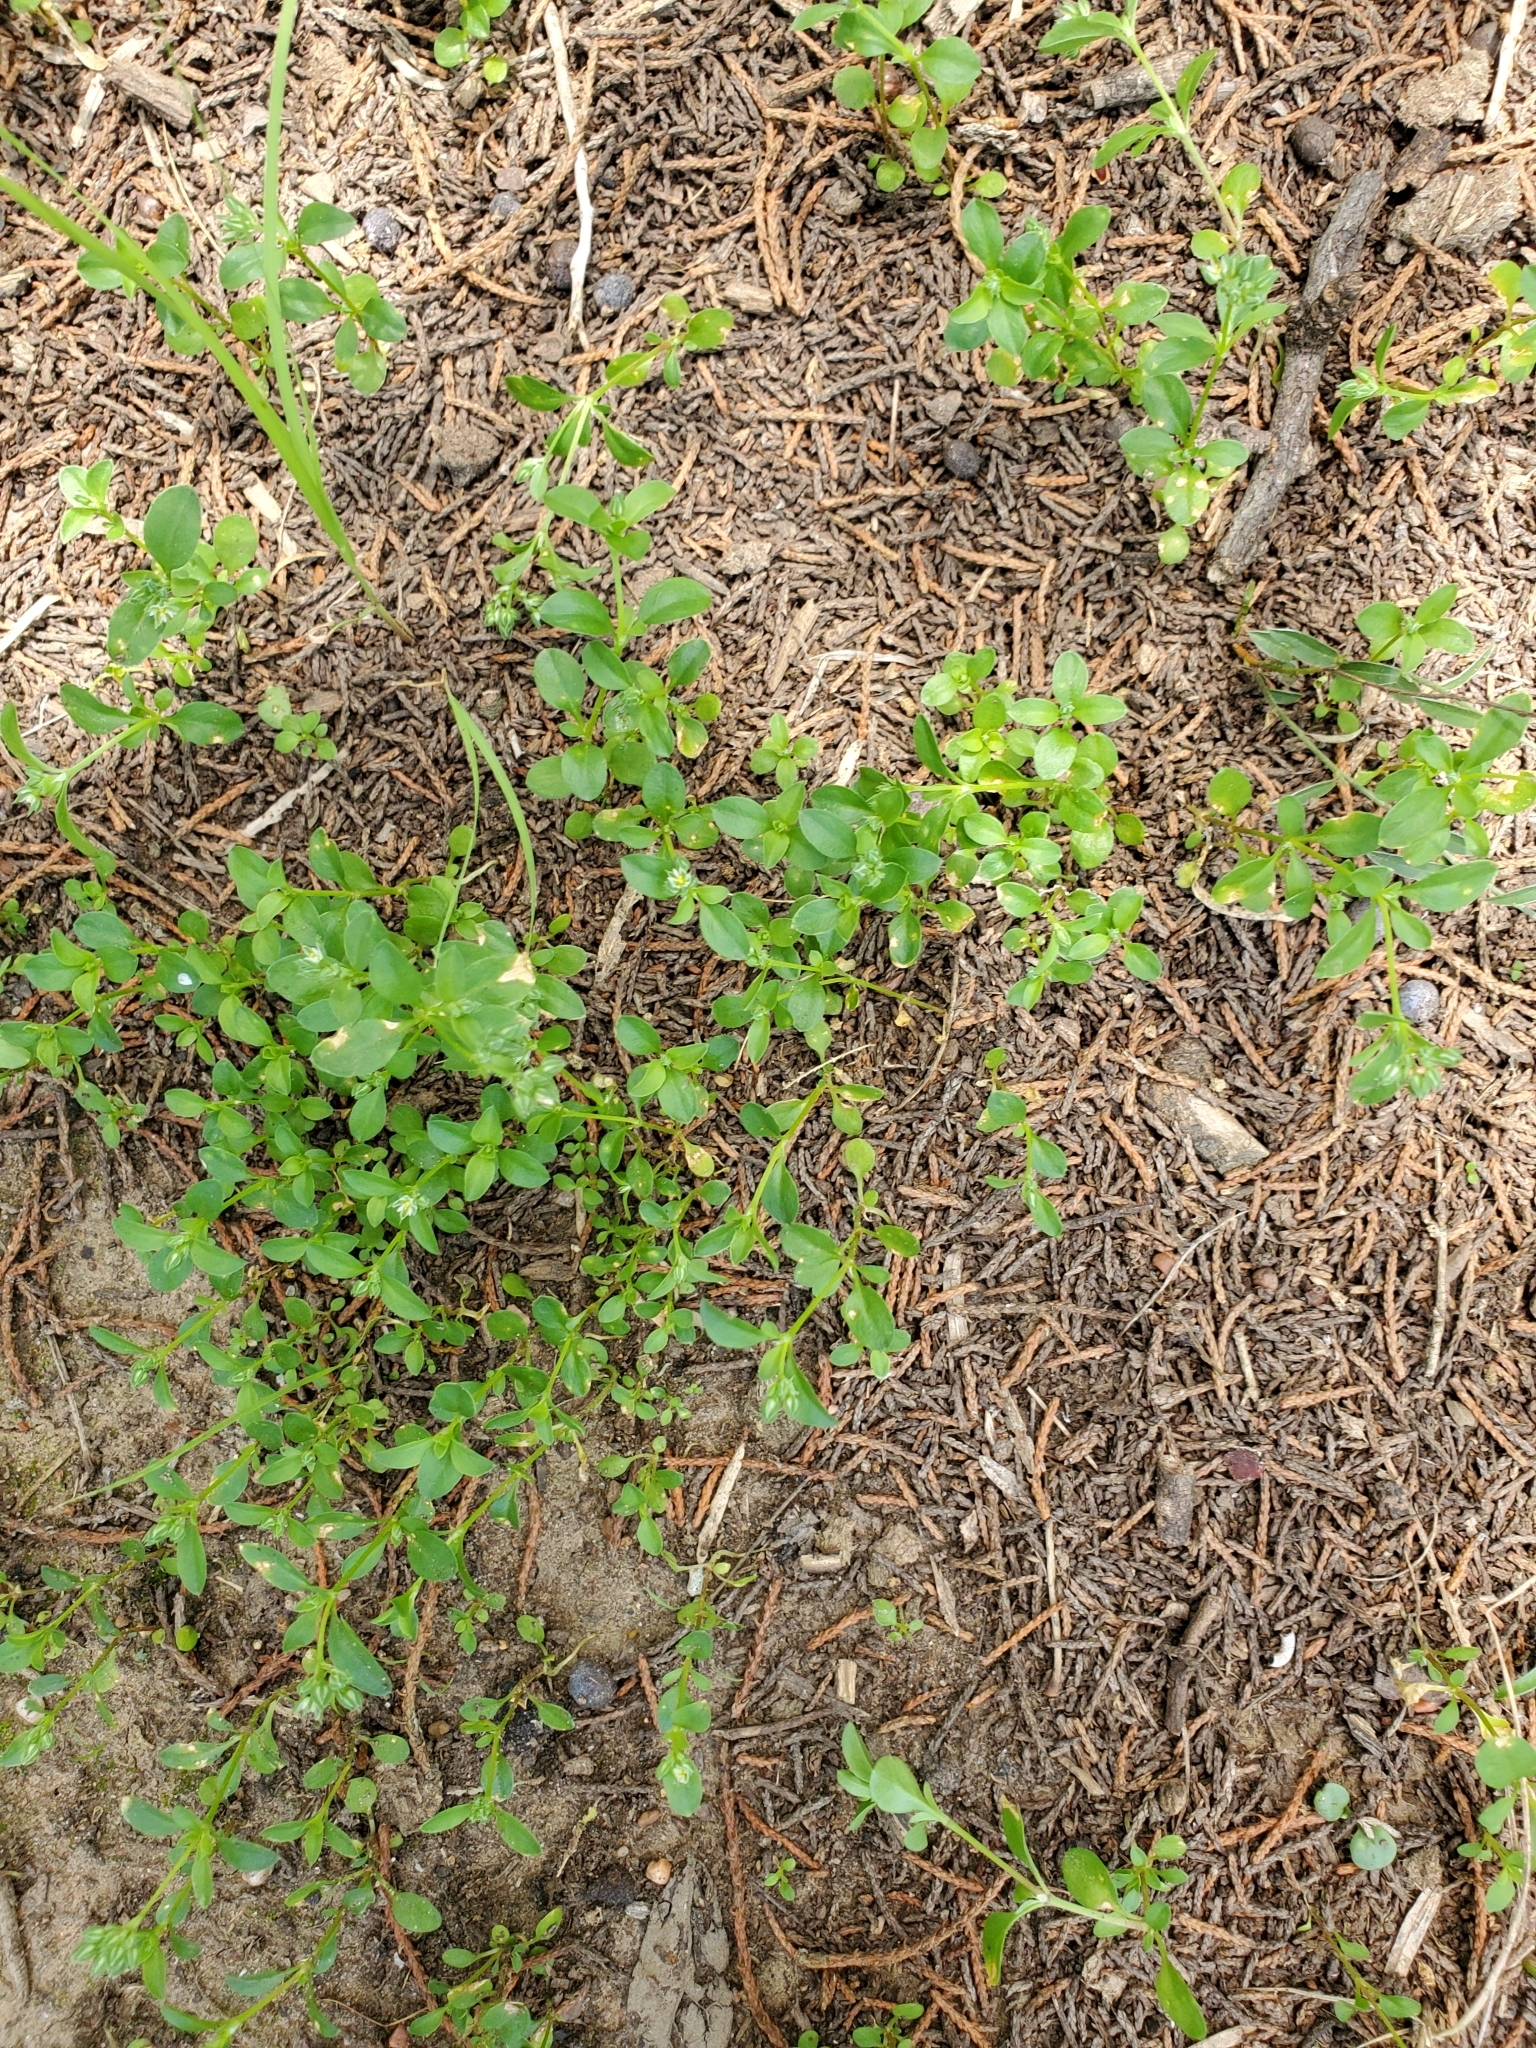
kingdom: Plantae
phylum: Tracheophyta
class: Magnoliopsida
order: Caryophyllales
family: Caryophyllaceae
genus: Polycarpon
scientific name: Polycarpon tetraphyllum
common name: Four-leaved all-seed
